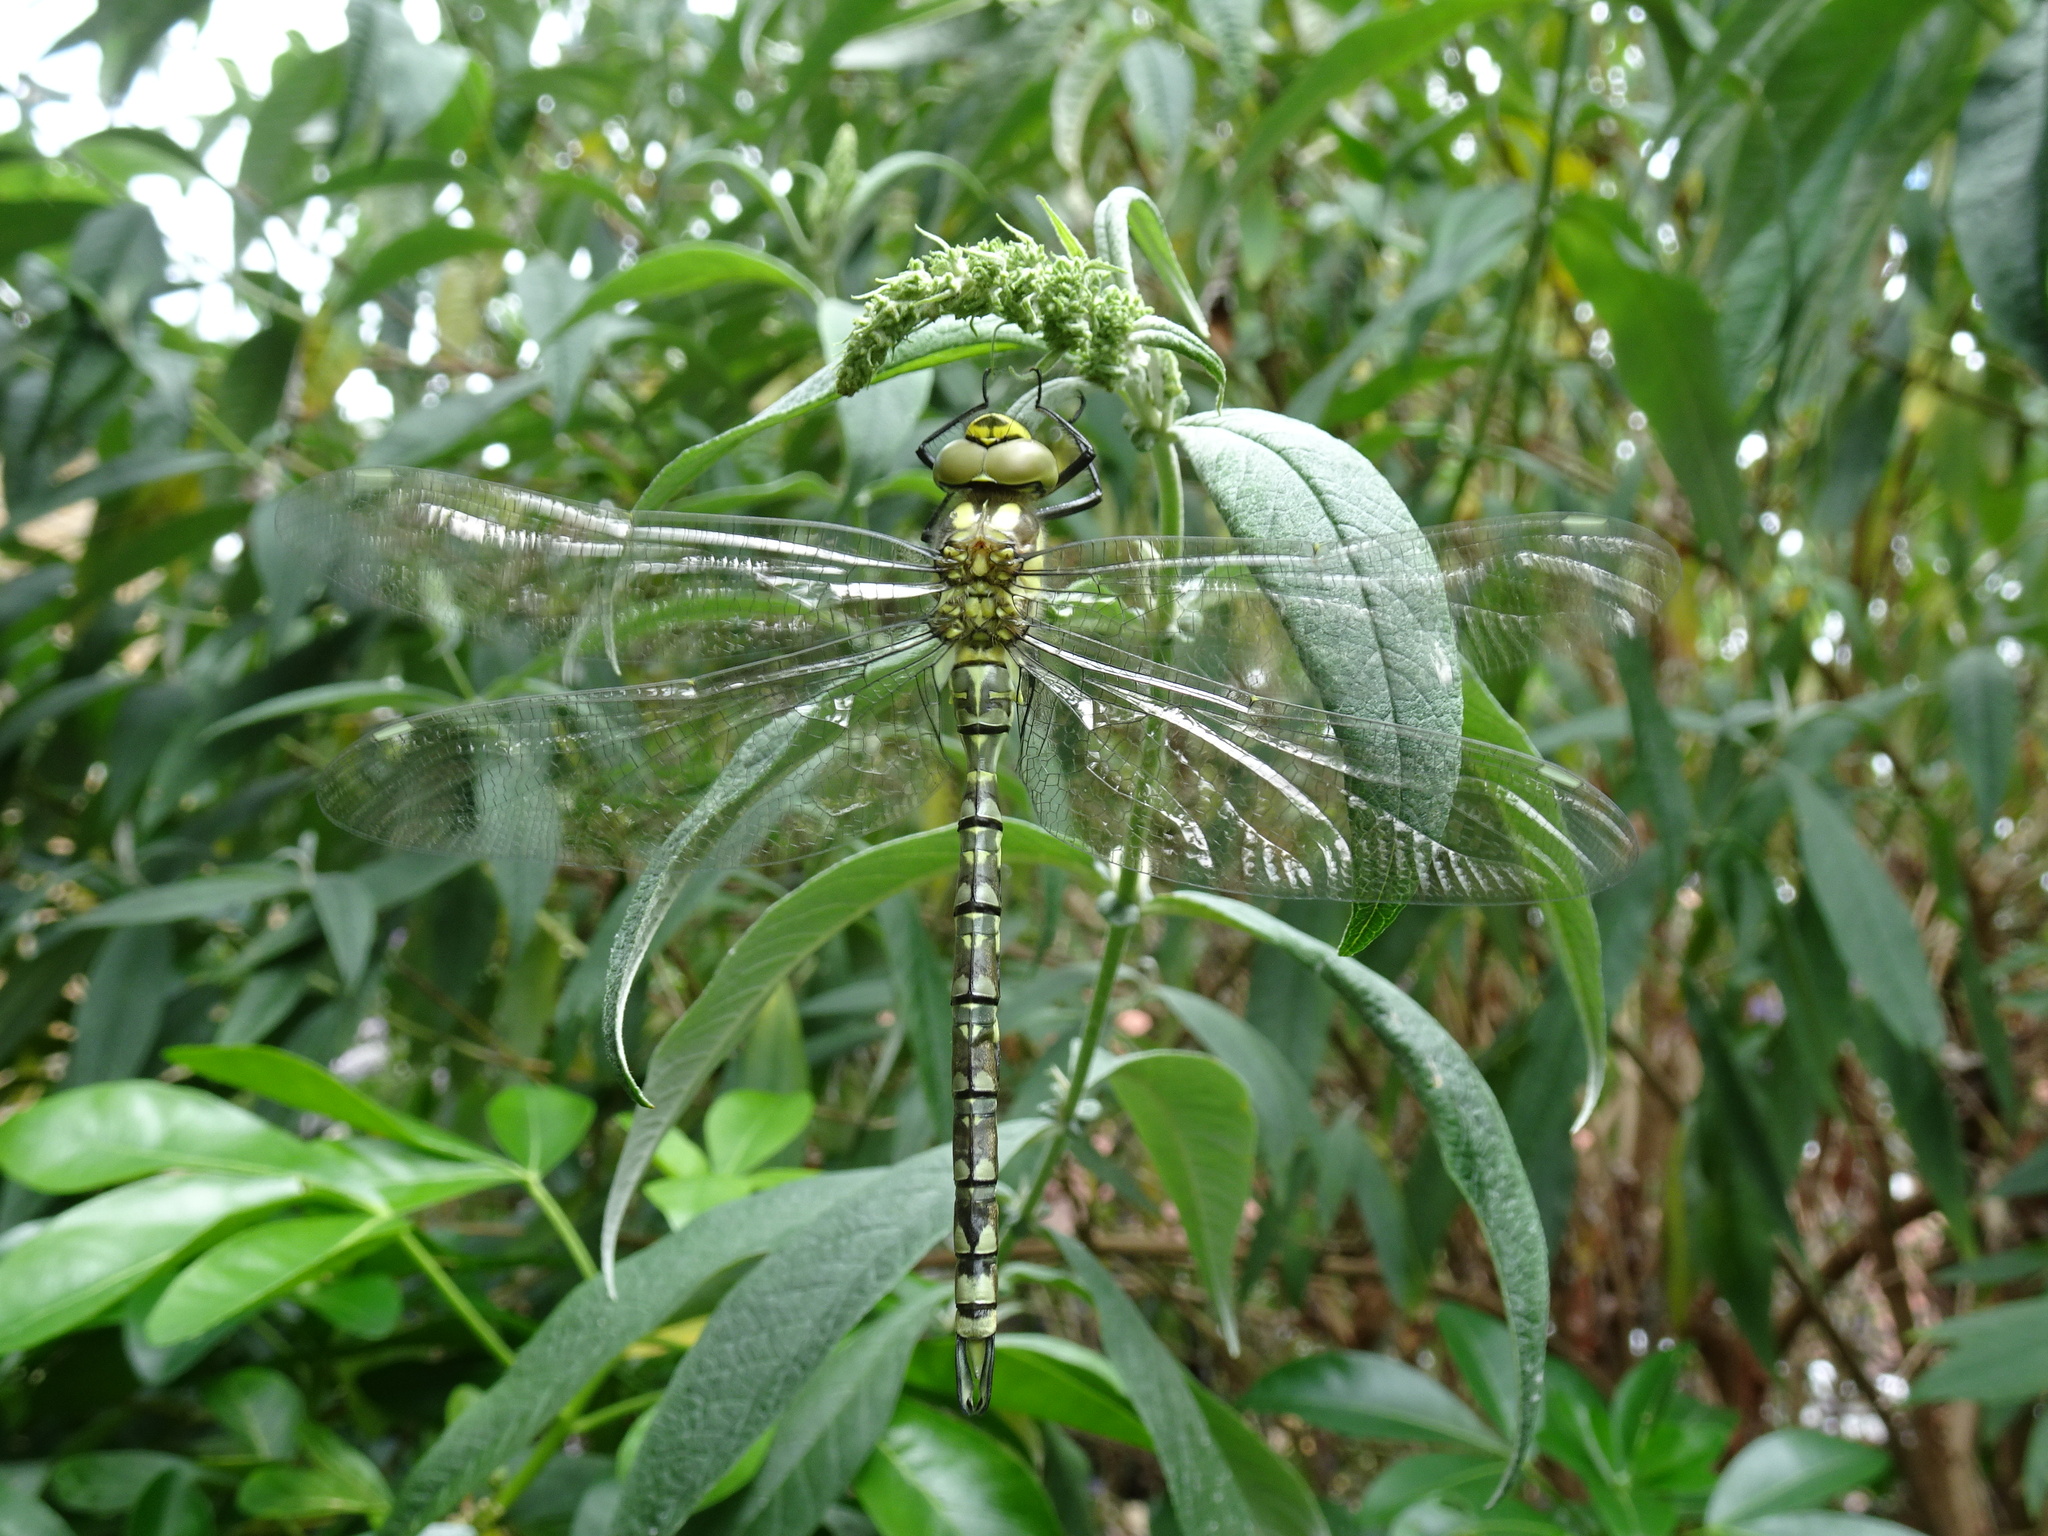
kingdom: Animalia
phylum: Arthropoda
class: Insecta
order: Odonata
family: Aeshnidae
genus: Aeshna
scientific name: Aeshna cyanea
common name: Southern hawker
